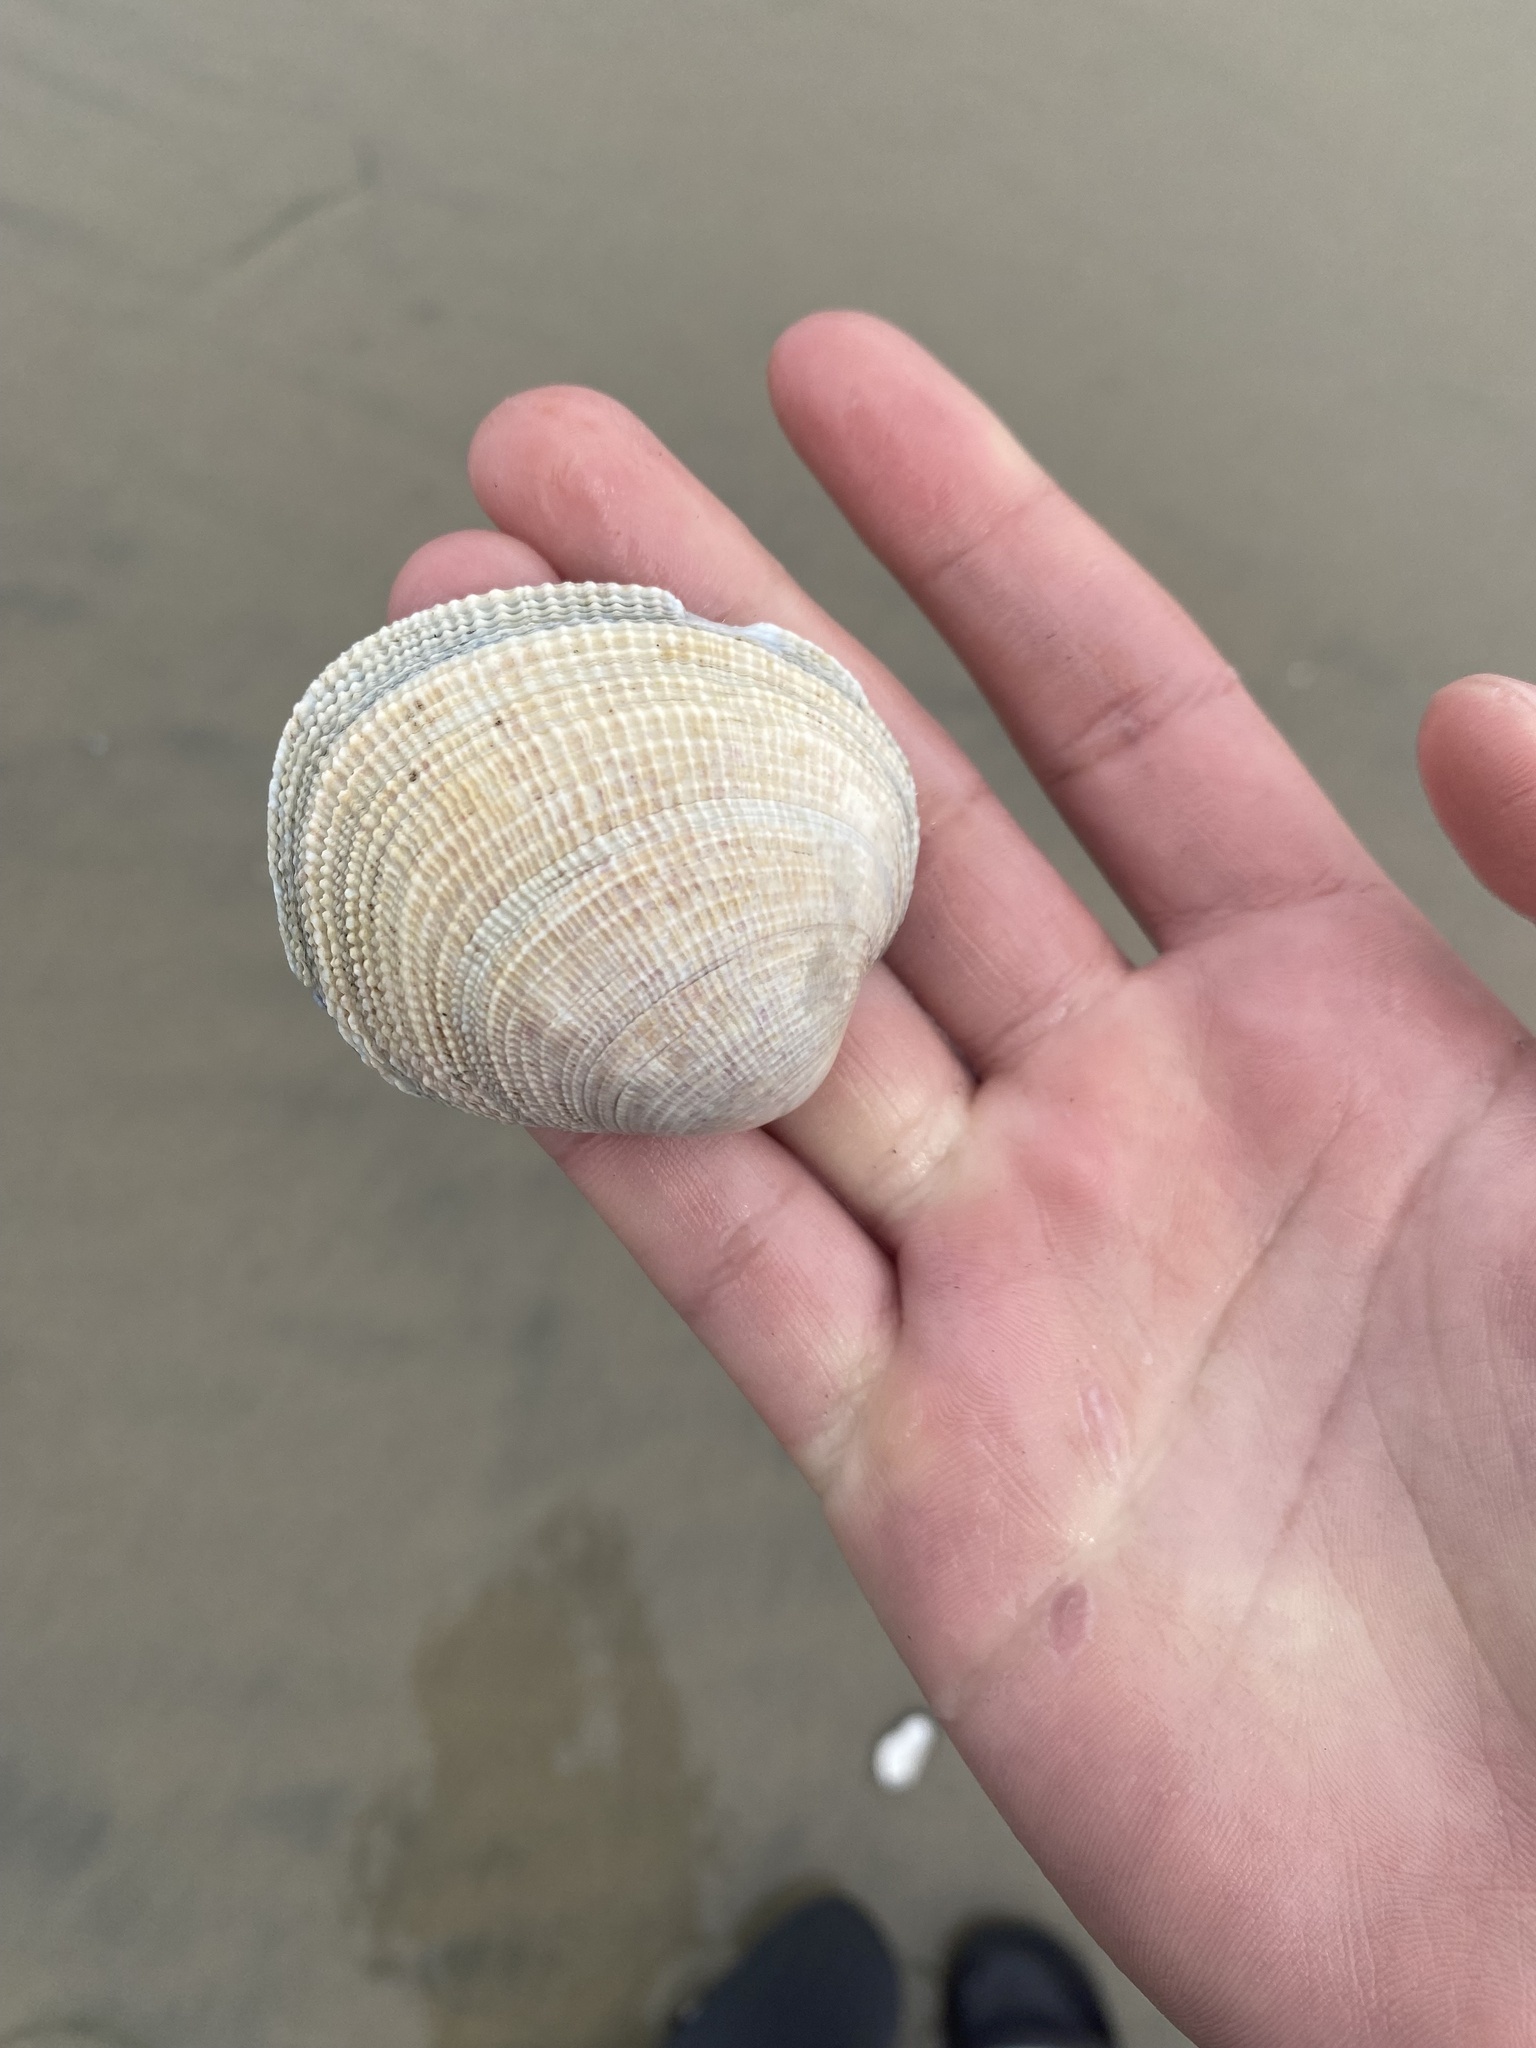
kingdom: Animalia
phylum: Mollusca
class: Bivalvia
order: Venerida
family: Veneridae
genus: Leukoma
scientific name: Leukoma laciniata
